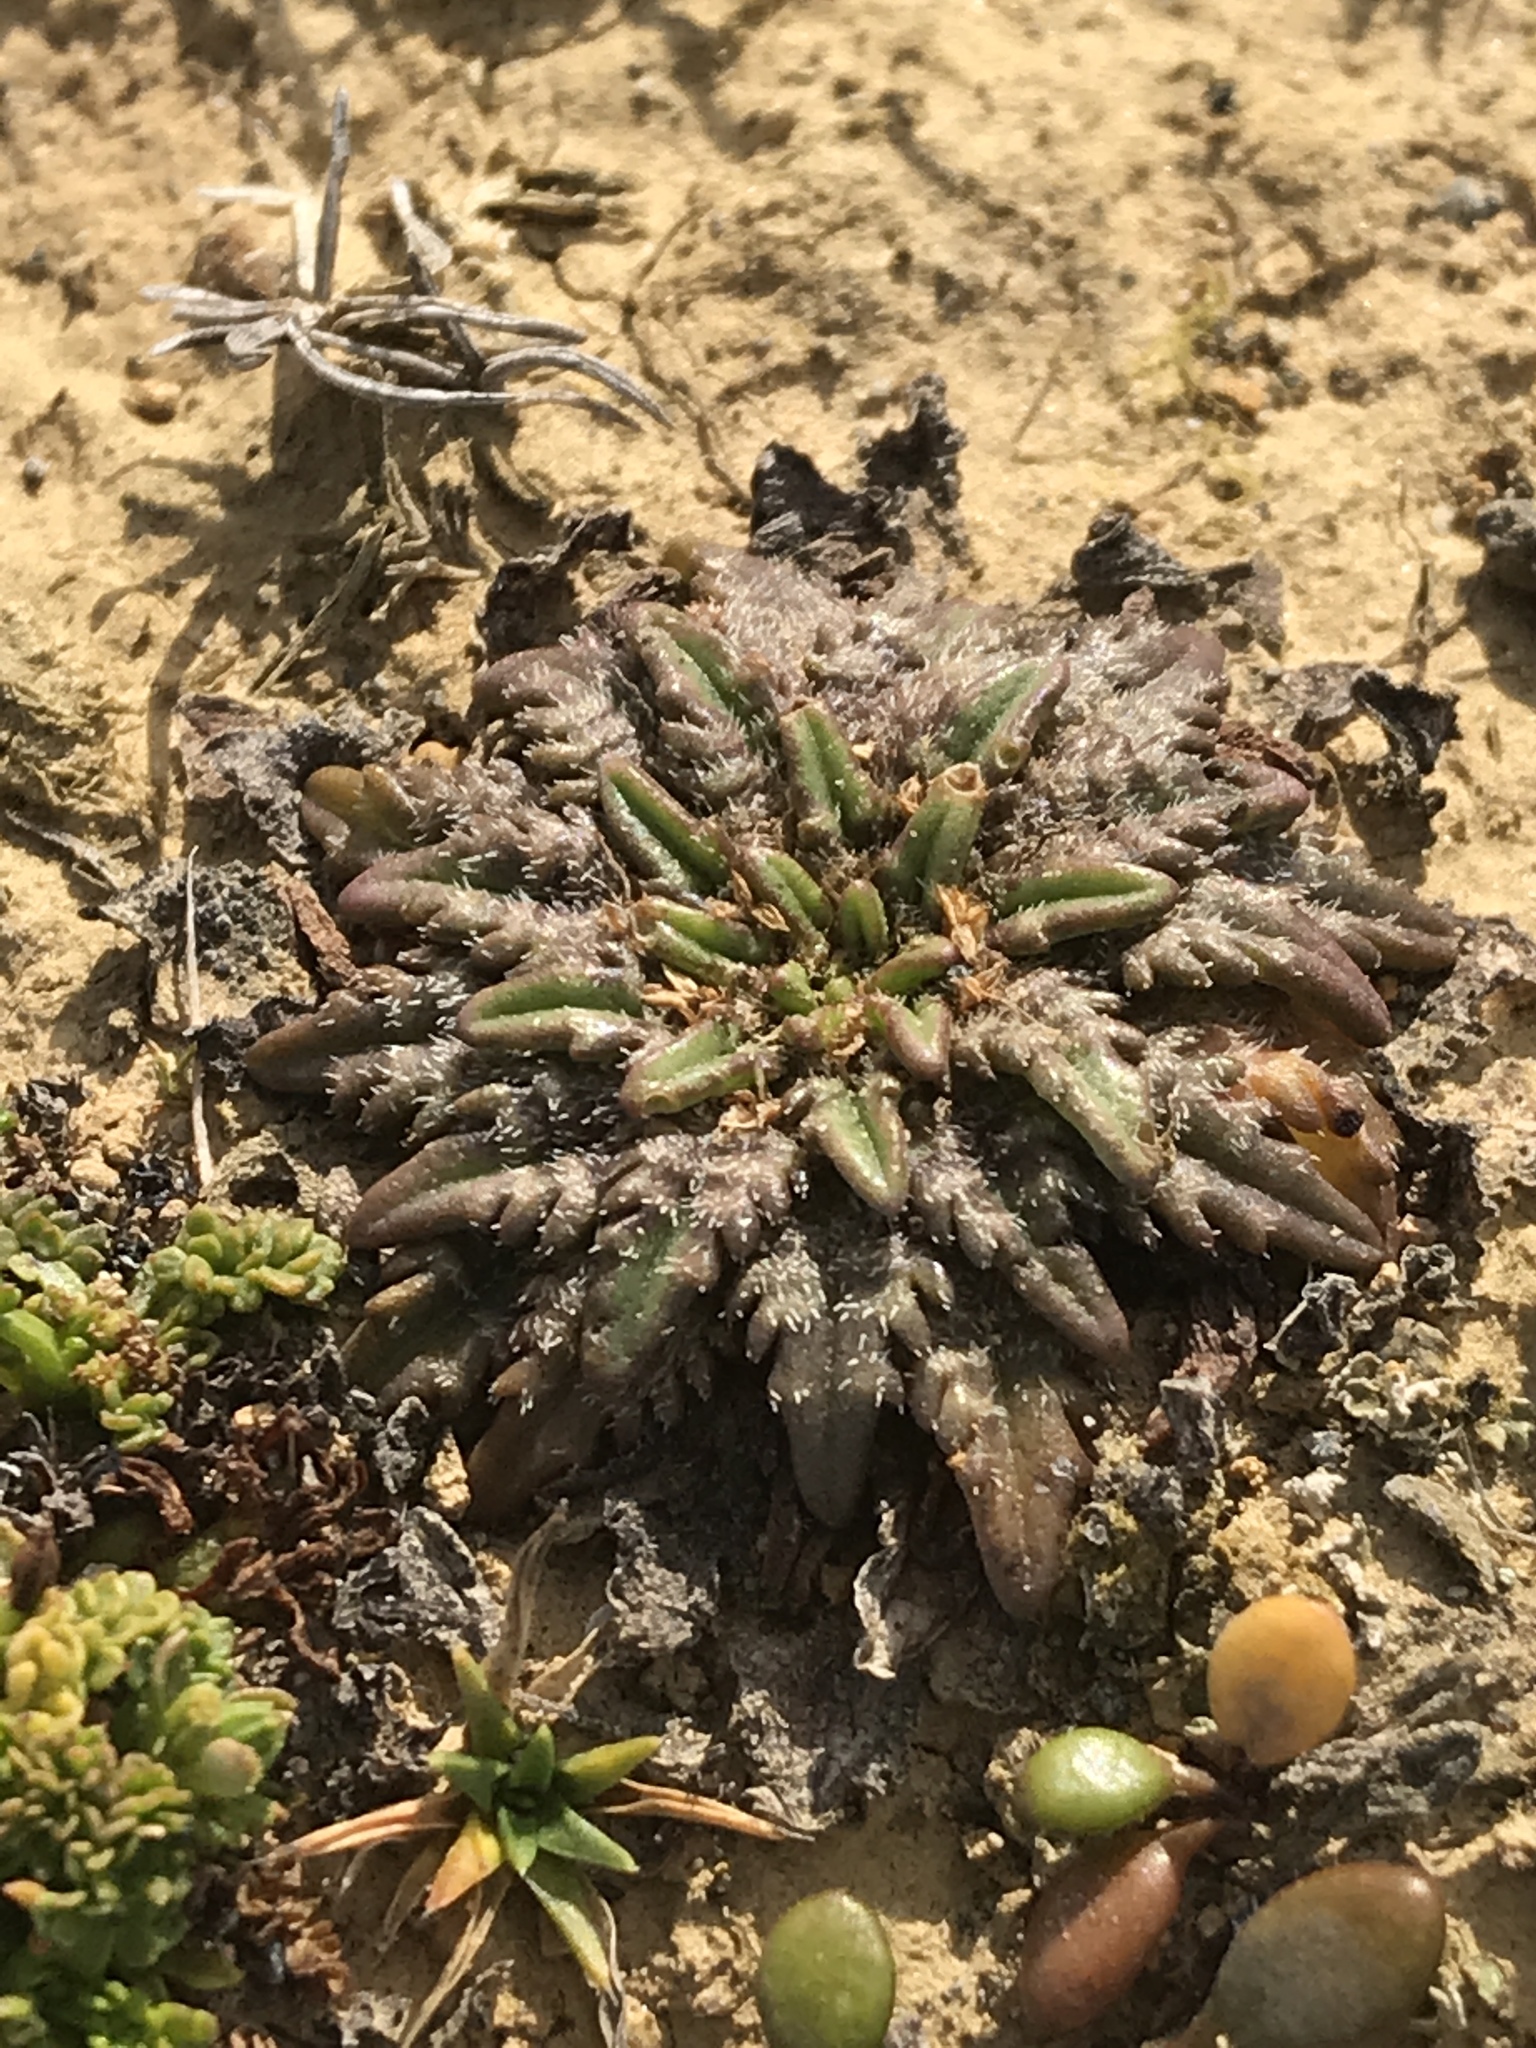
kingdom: Plantae
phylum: Tracheophyta
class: Magnoliopsida
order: Lamiales
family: Plantaginaceae
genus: Plantago
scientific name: Plantago triandra
